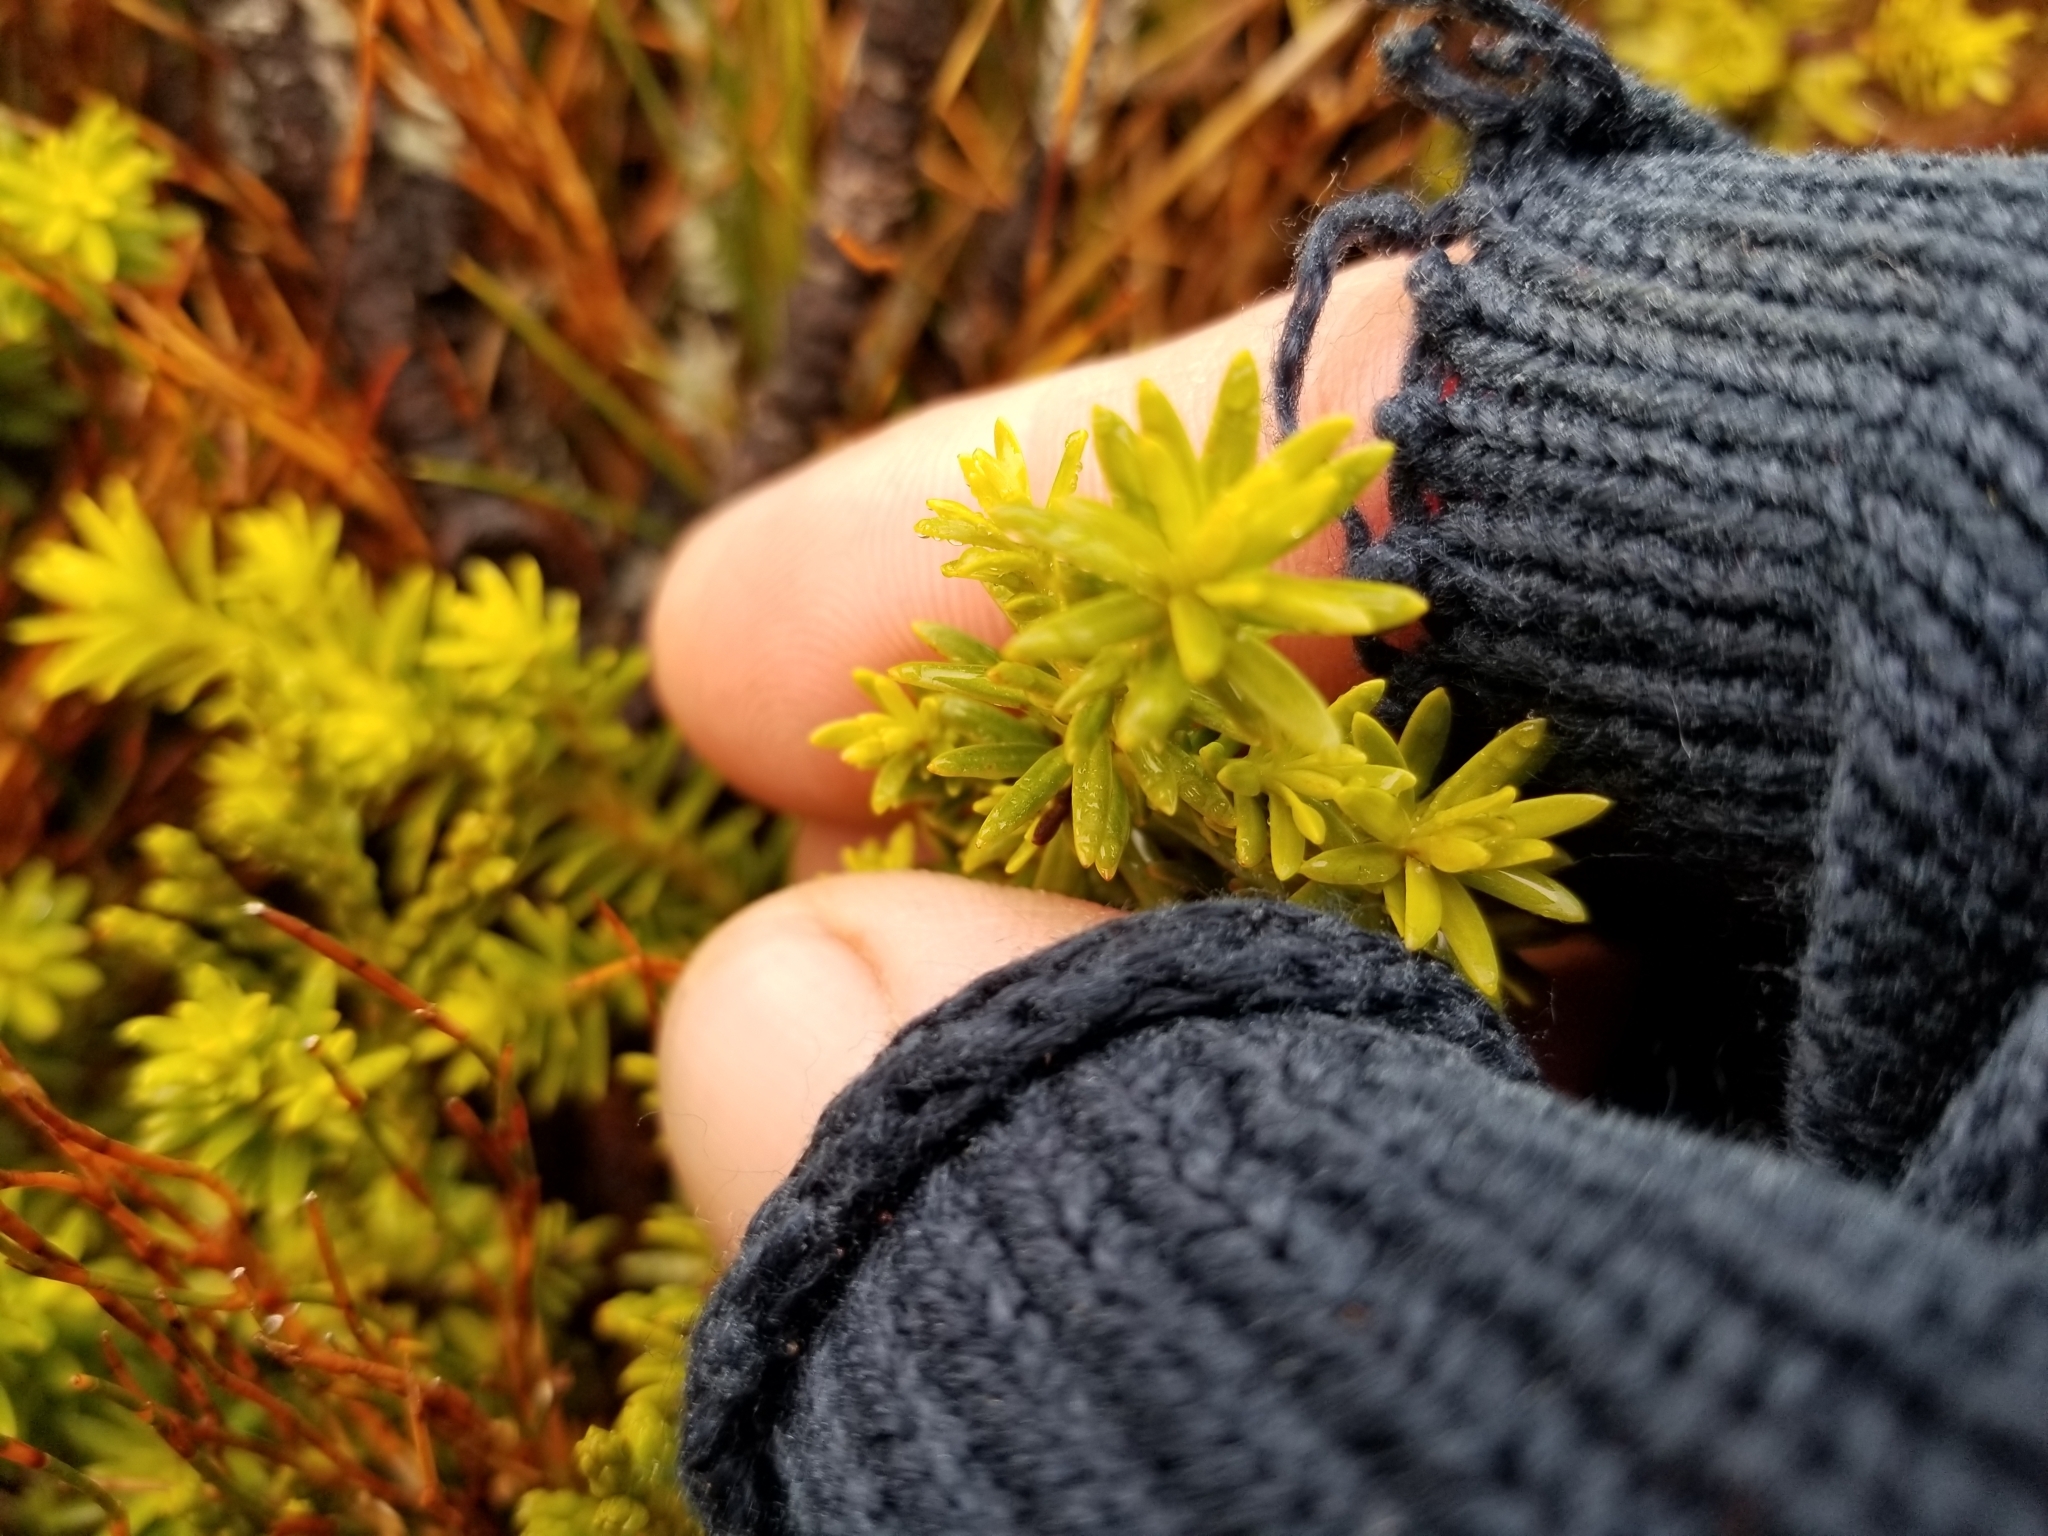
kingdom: Plantae
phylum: Tracheophyta
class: Pinopsida
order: Pinales
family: Podocarpaceae
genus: Podocarpus
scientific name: Podocarpus nivalis
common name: Alpine totara
